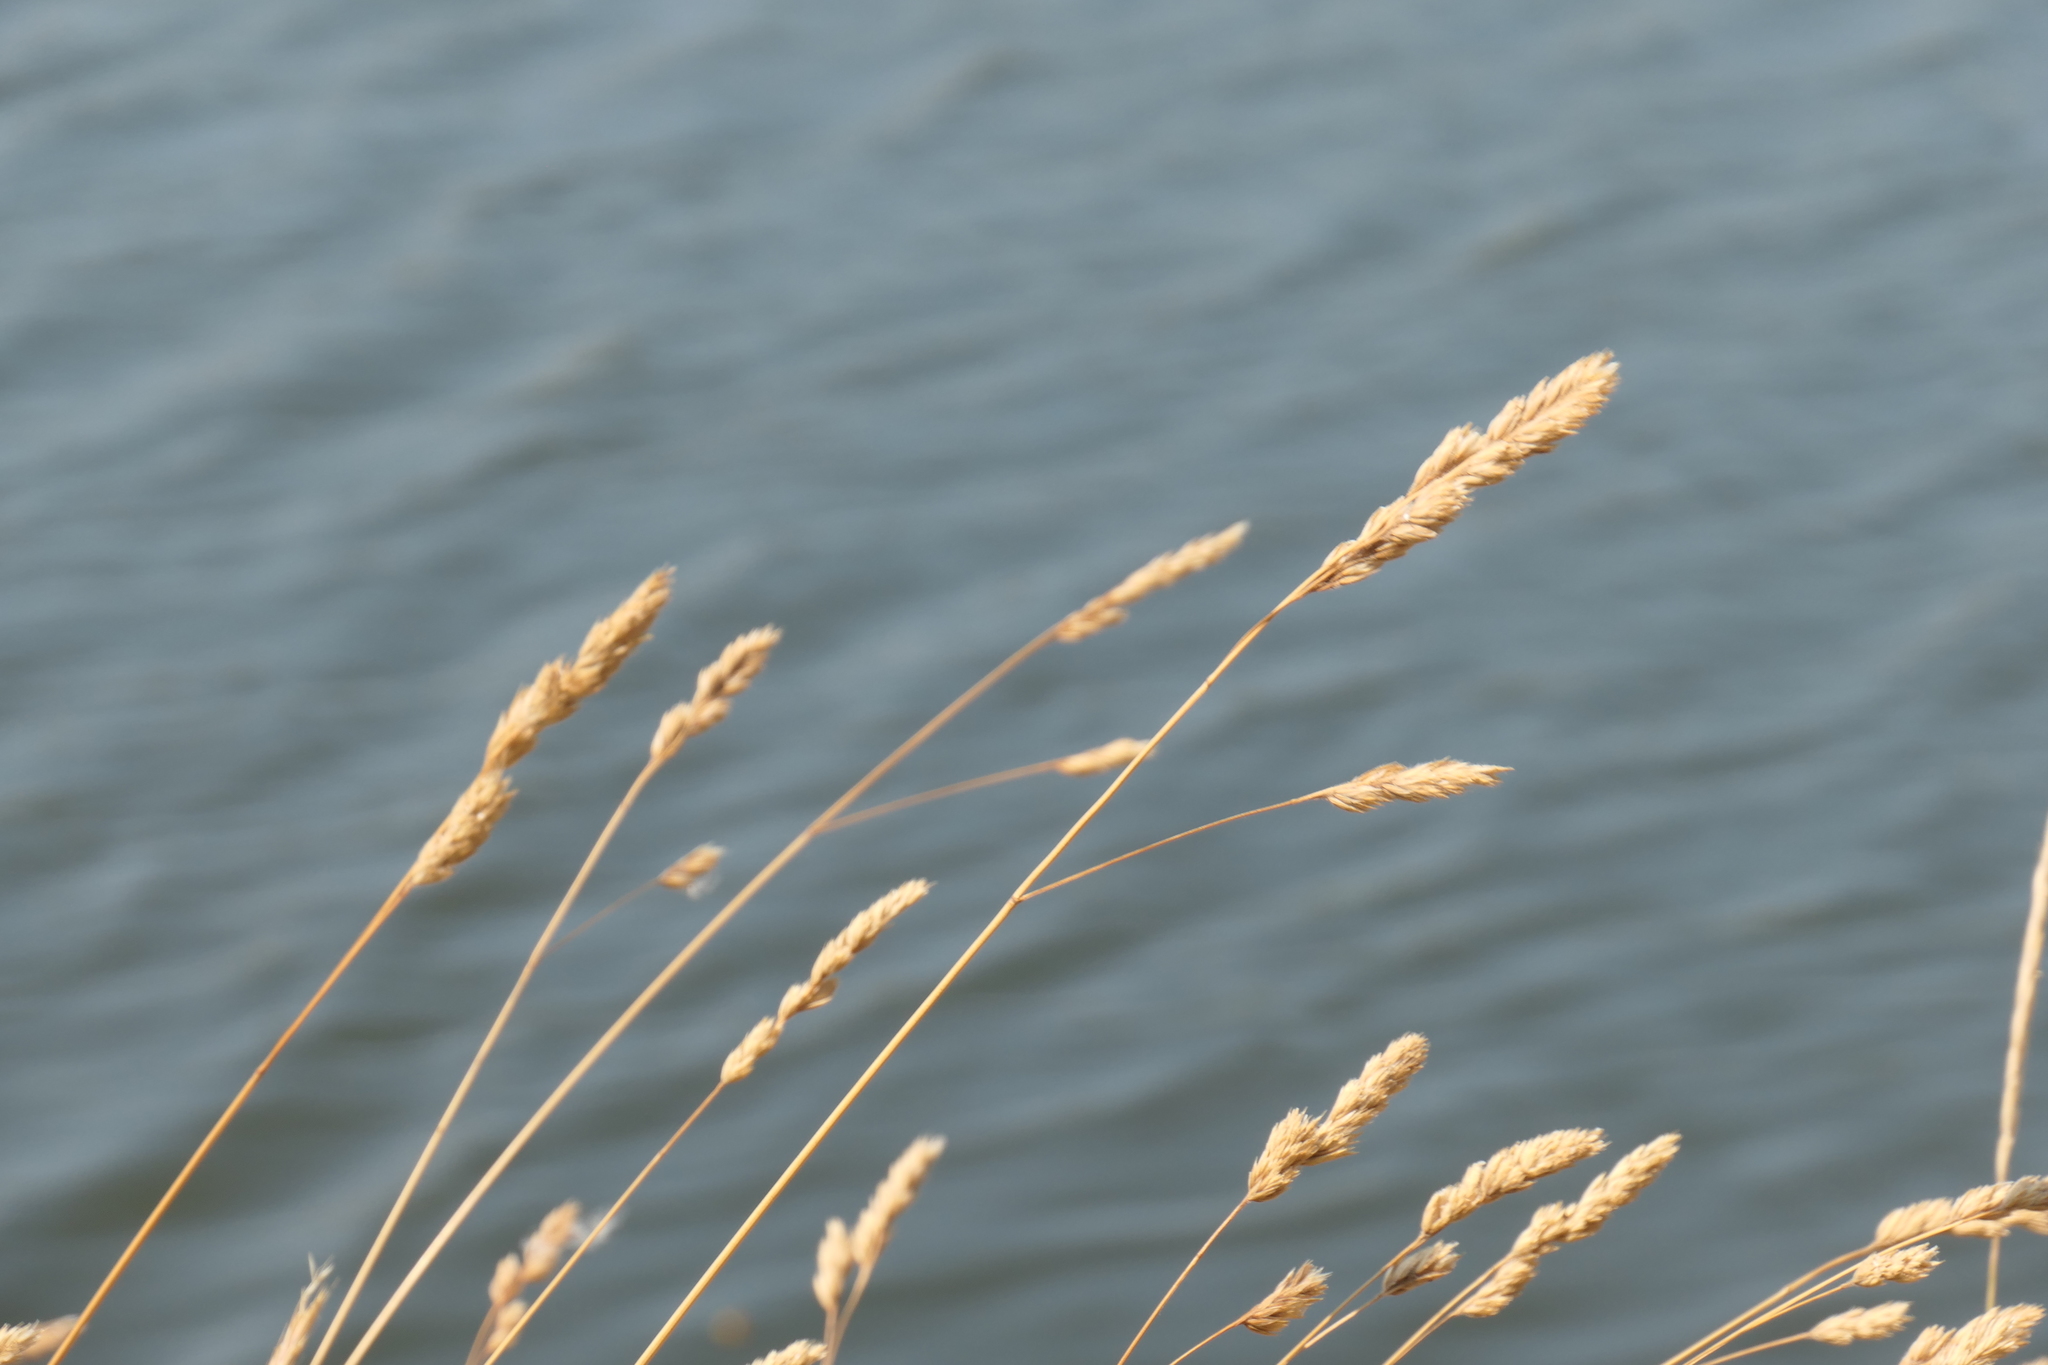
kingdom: Plantae
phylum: Tracheophyta
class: Liliopsida
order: Poales
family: Poaceae
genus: Dactylis
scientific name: Dactylis glomerata
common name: Orchardgrass
